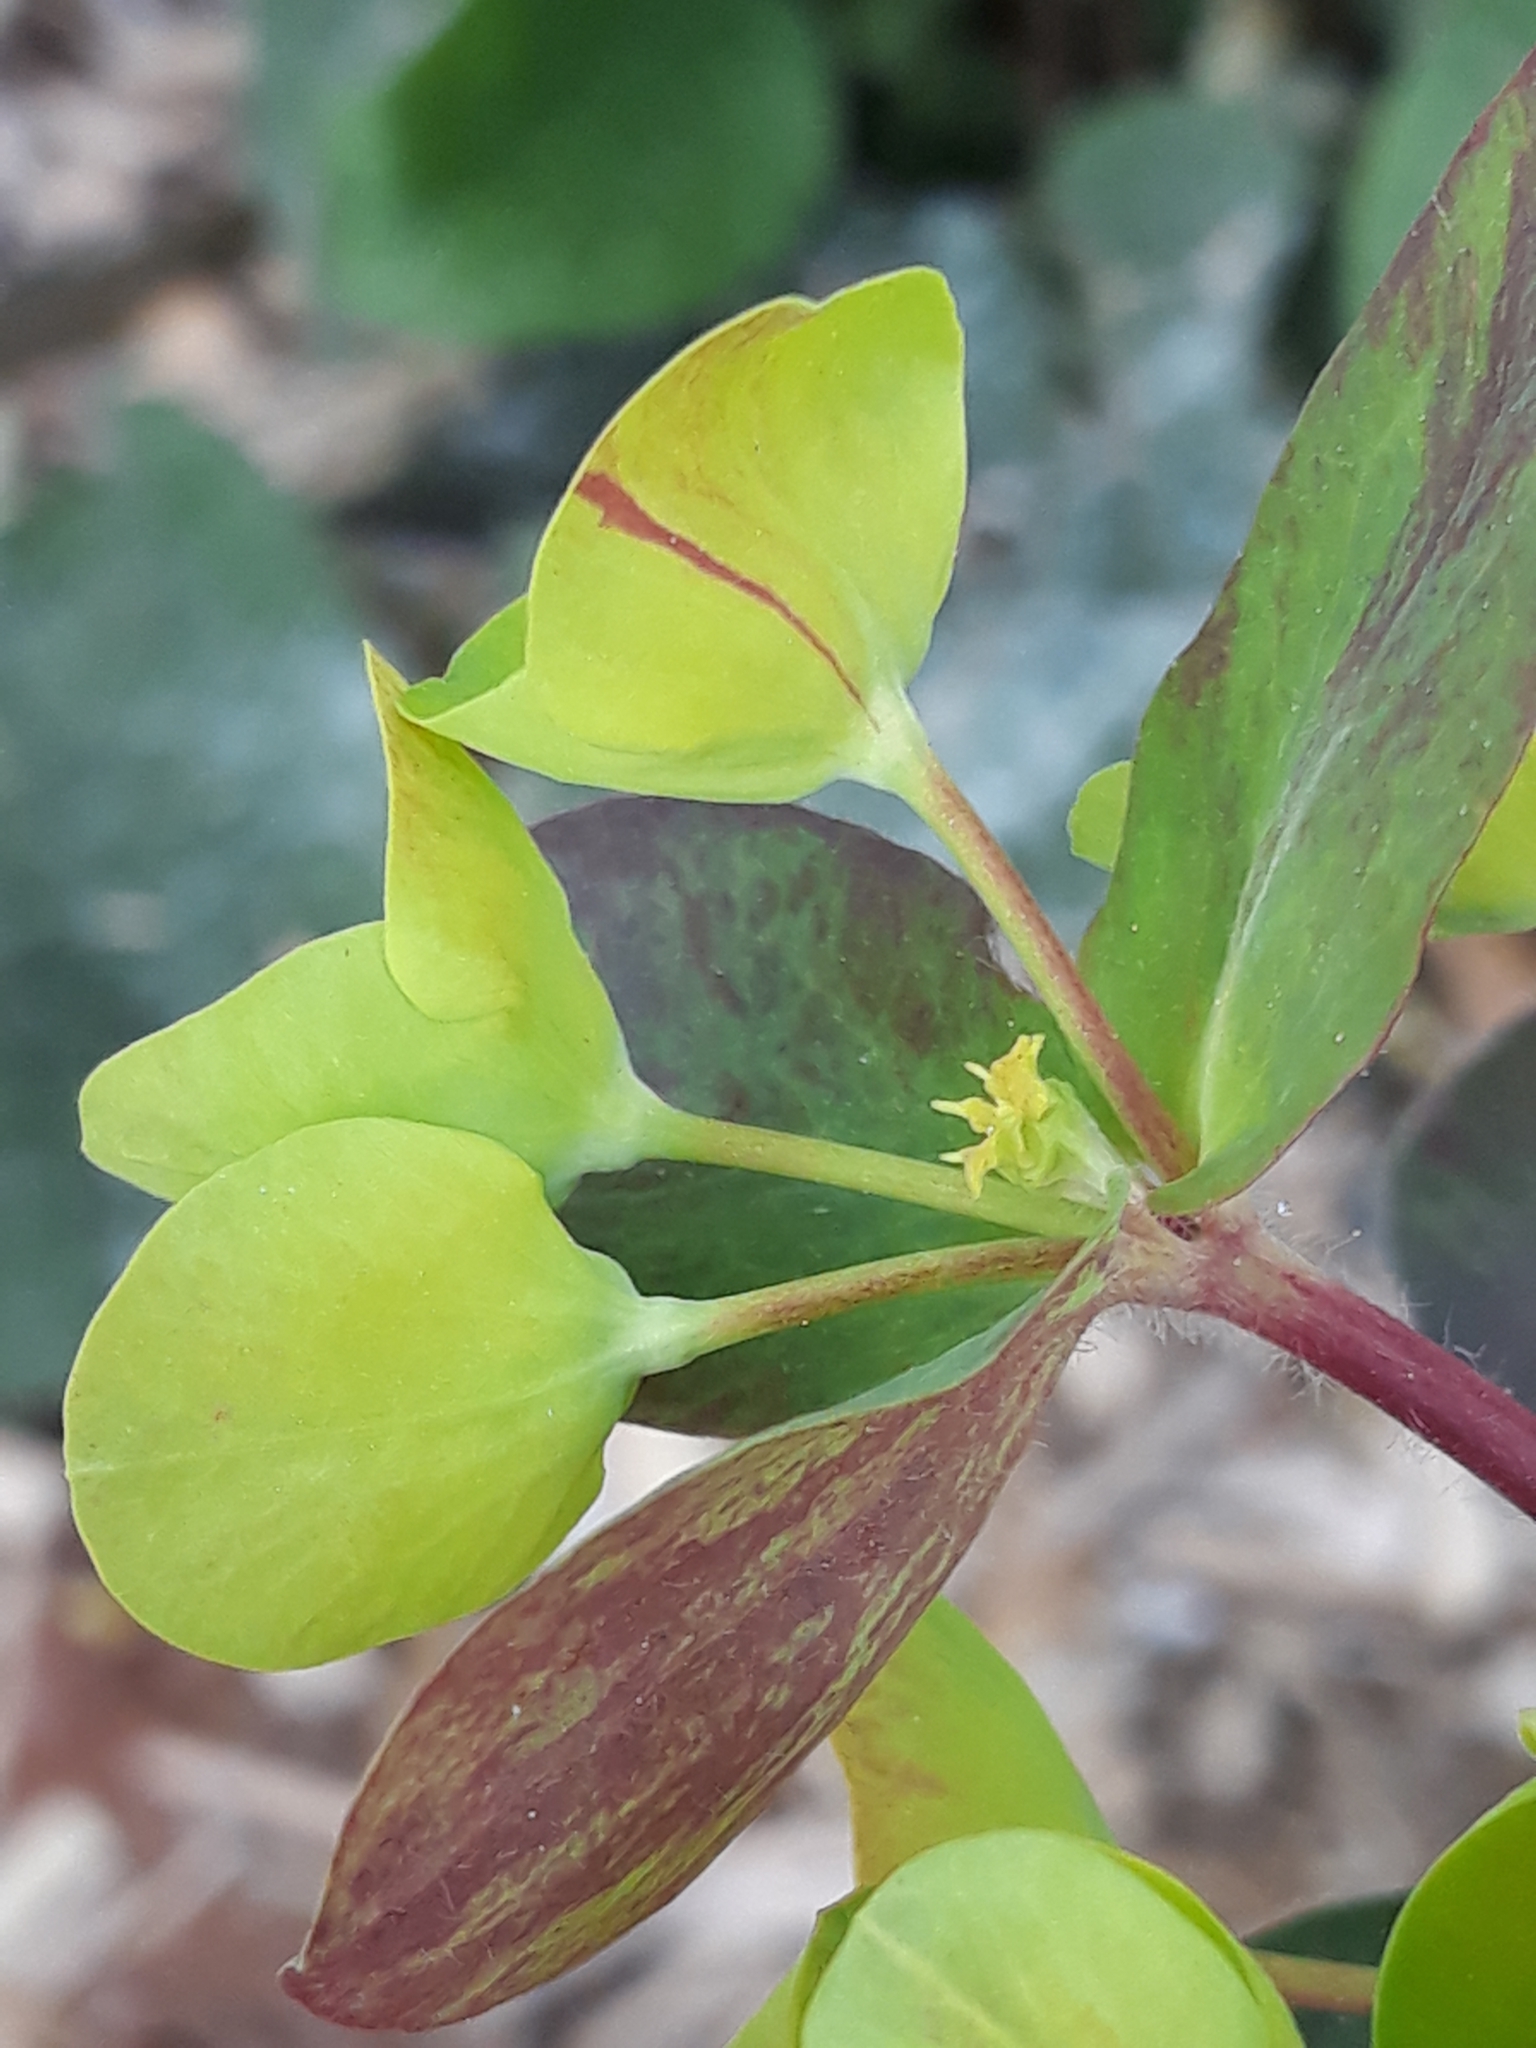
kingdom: Plantae
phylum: Tracheophyta
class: Magnoliopsida
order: Malpighiales
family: Euphorbiaceae
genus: Euphorbia
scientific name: Euphorbia amygdaloides
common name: Wood spurge
